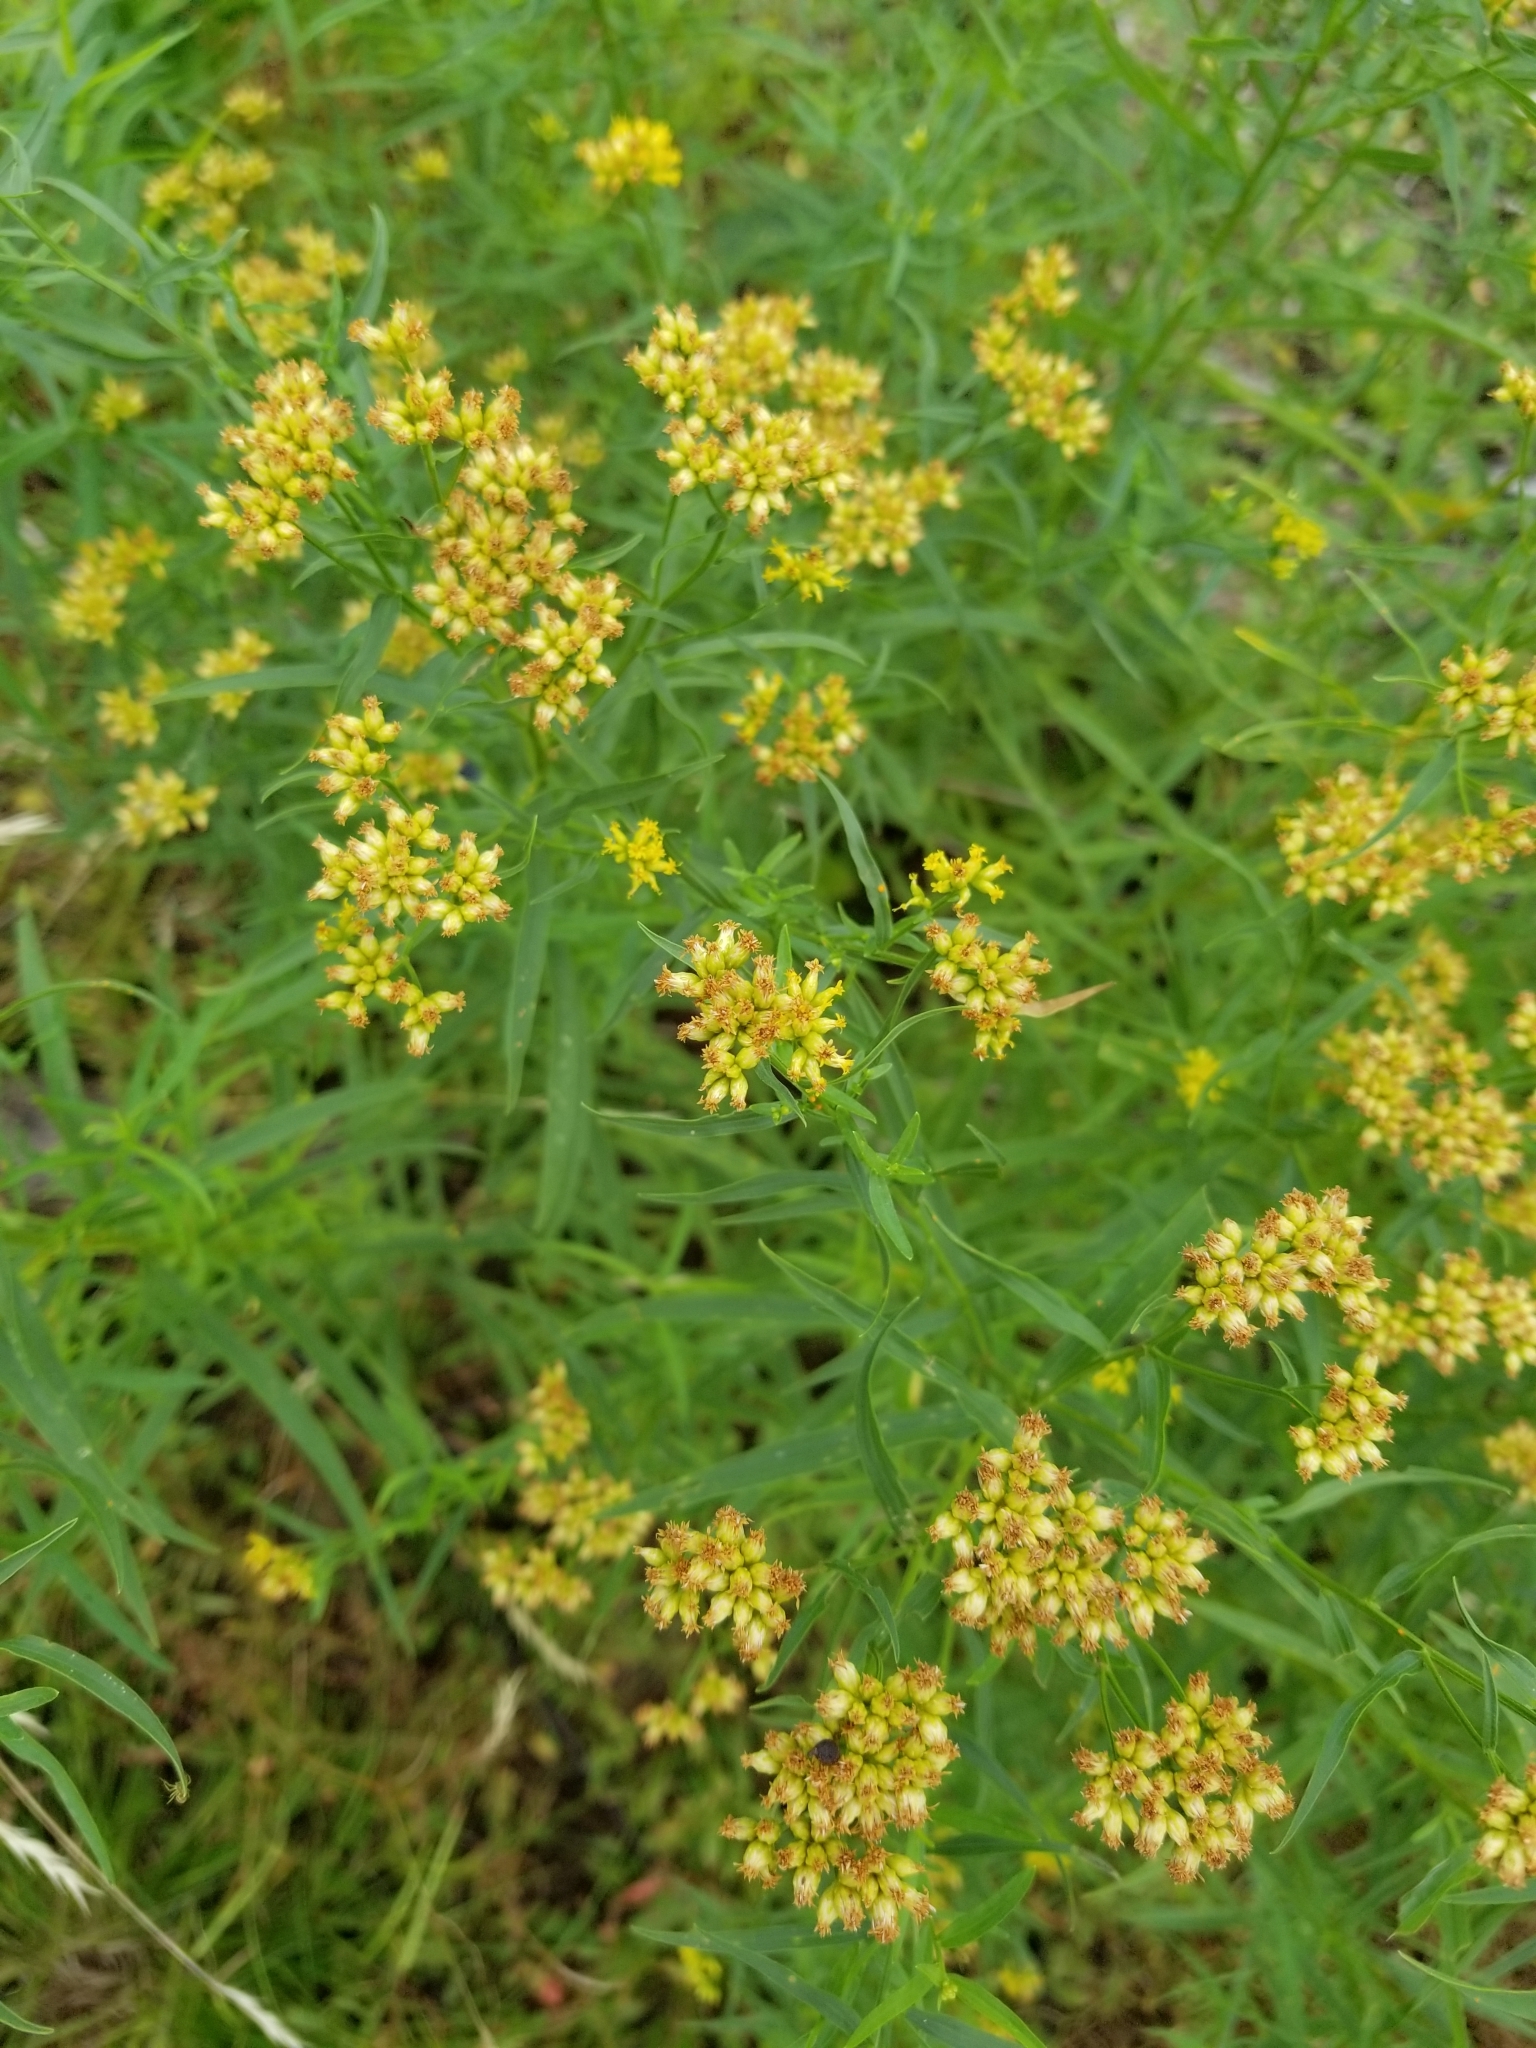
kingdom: Plantae
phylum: Tracheophyta
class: Magnoliopsida
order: Asterales
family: Asteraceae
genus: Euthamia
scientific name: Euthamia graminifolia
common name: Common goldentop
